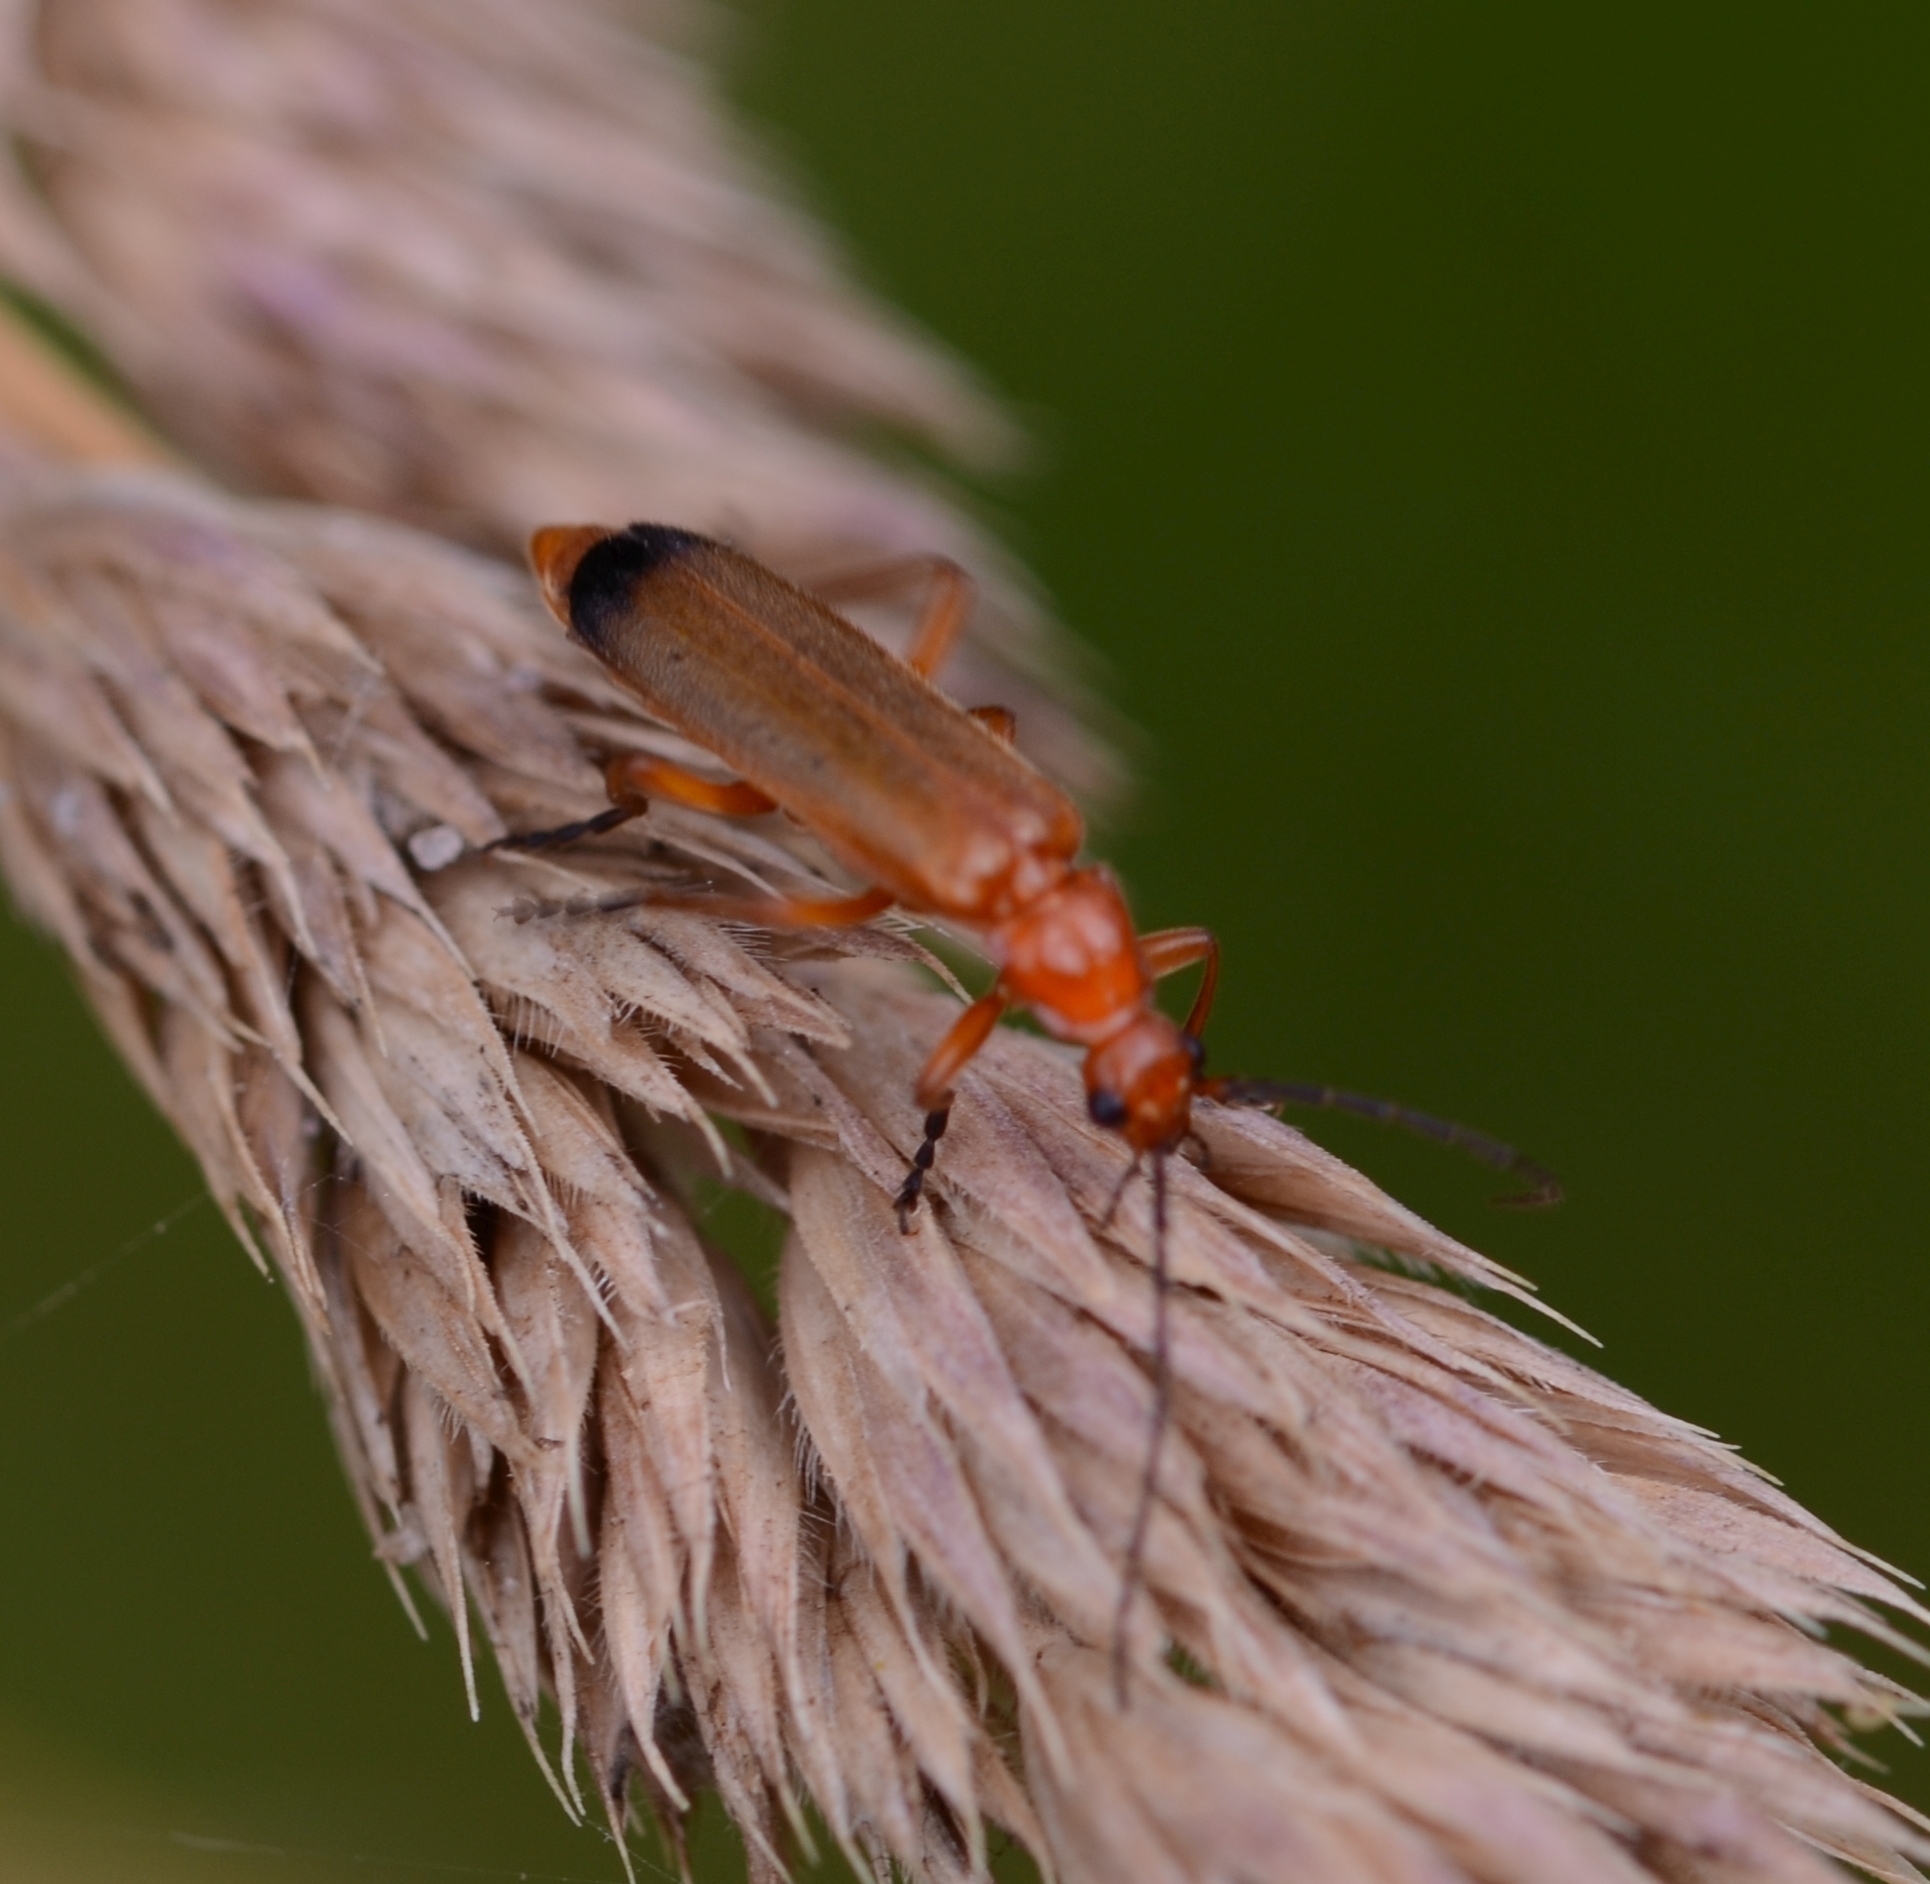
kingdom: Animalia
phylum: Arthropoda
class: Insecta
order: Coleoptera
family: Cantharidae
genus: Rhagonycha
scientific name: Rhagonycha fulva
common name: Common red soldier beetle
